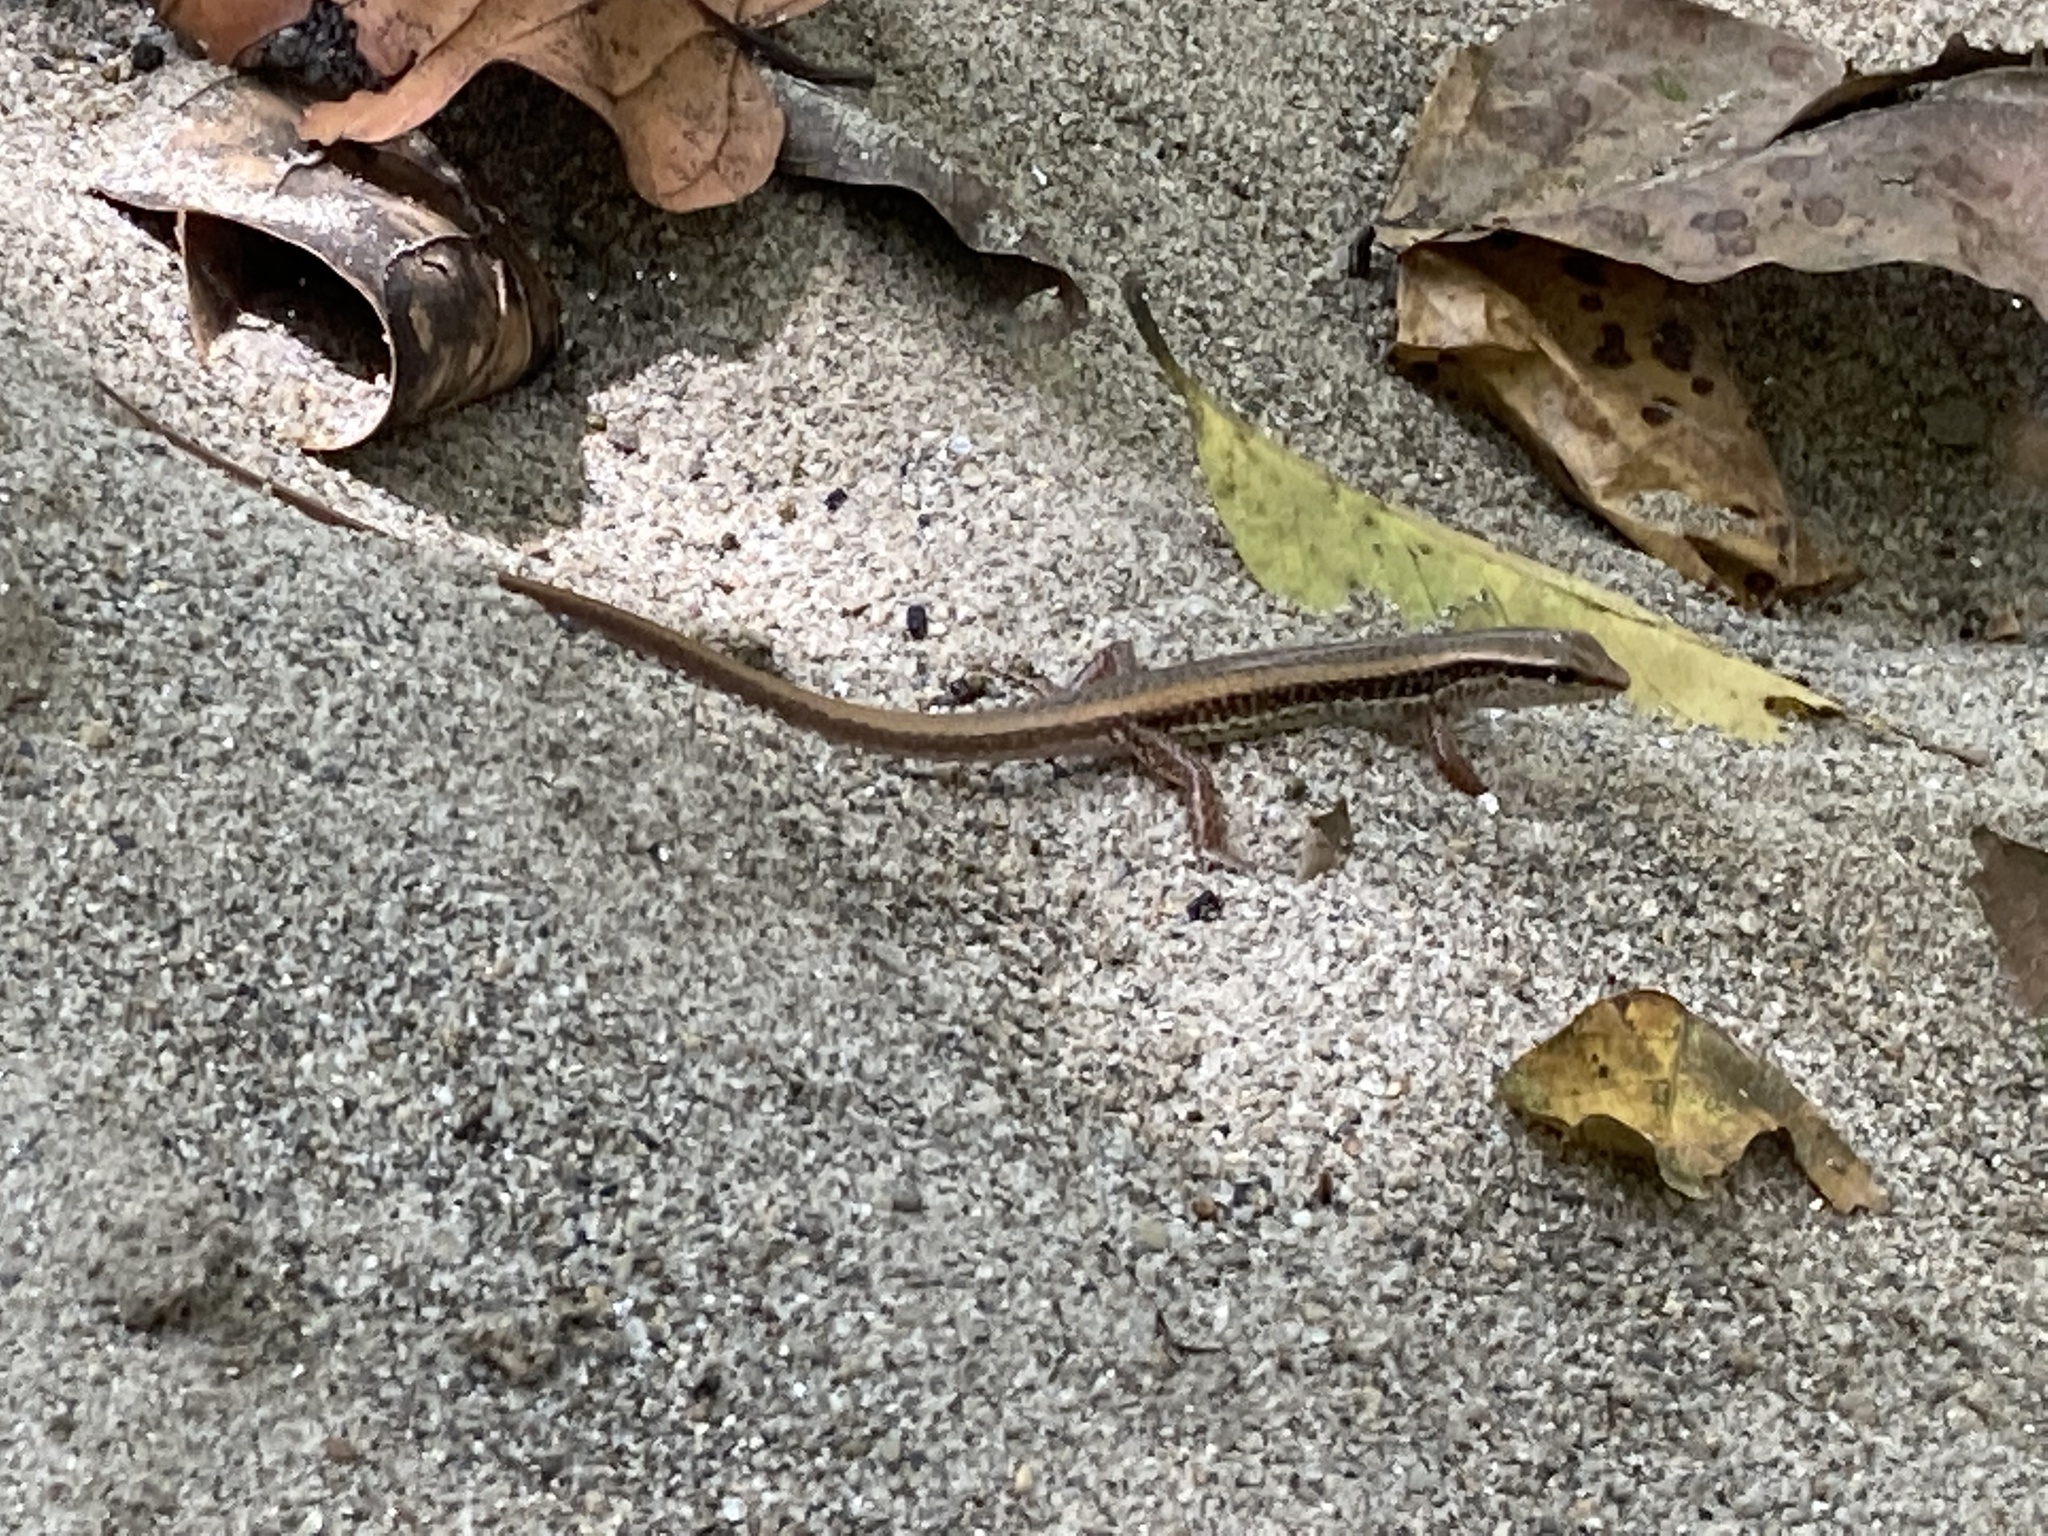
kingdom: Animalia
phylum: Chordata
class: Squamata
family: Scincidae
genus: Sphenomorphus
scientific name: Sphenomorphus maculatus
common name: Maculated forest skink
